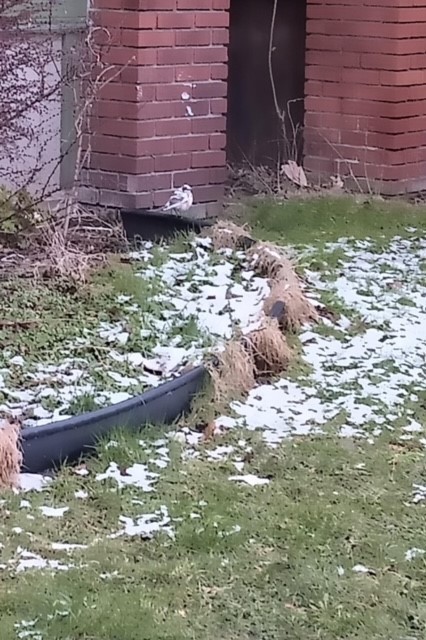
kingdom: Animalia
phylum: Chordata
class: Aves
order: Passeriformes
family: Passerellidae
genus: Zonotrichia
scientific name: Zonotrichia albicollis
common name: White-throated sparrow
